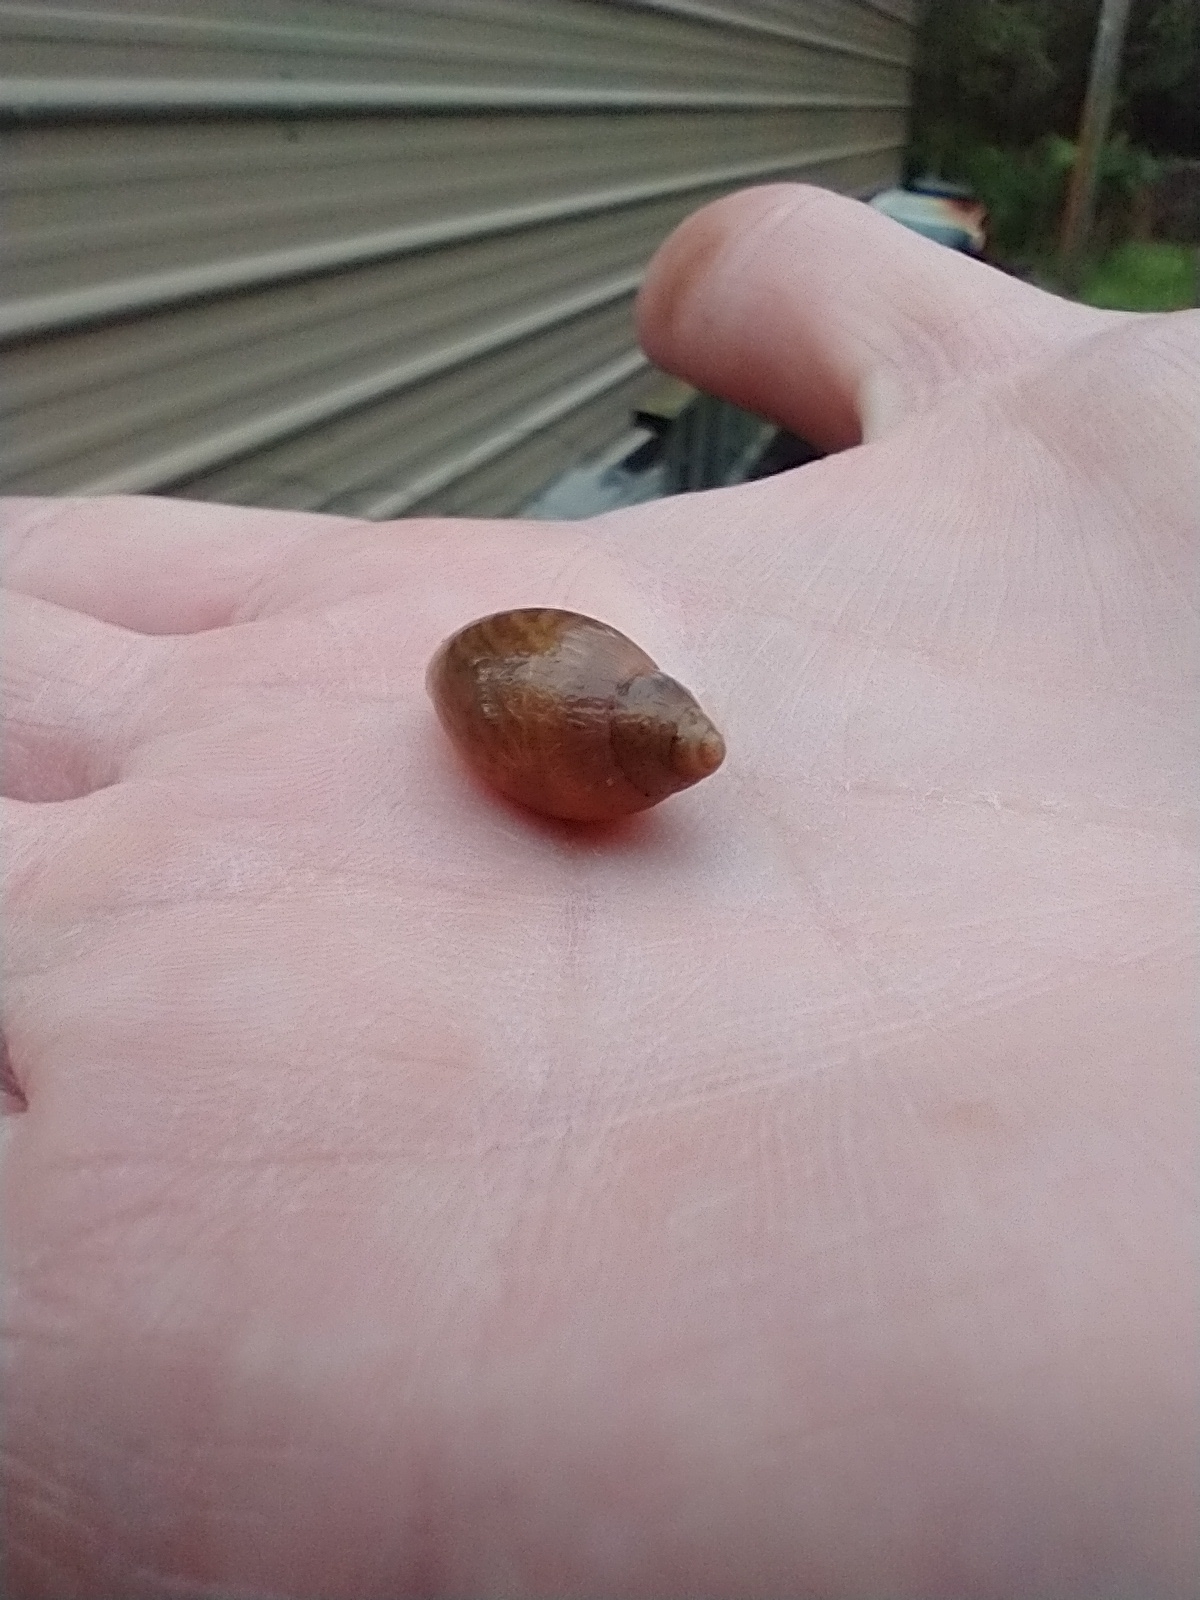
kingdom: Animalia
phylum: Mollusca
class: Gastropoda
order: Stylommatophora
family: Spiraxidae
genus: Euglandina
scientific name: Euglandina rosea
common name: Rosy wolfsnail
